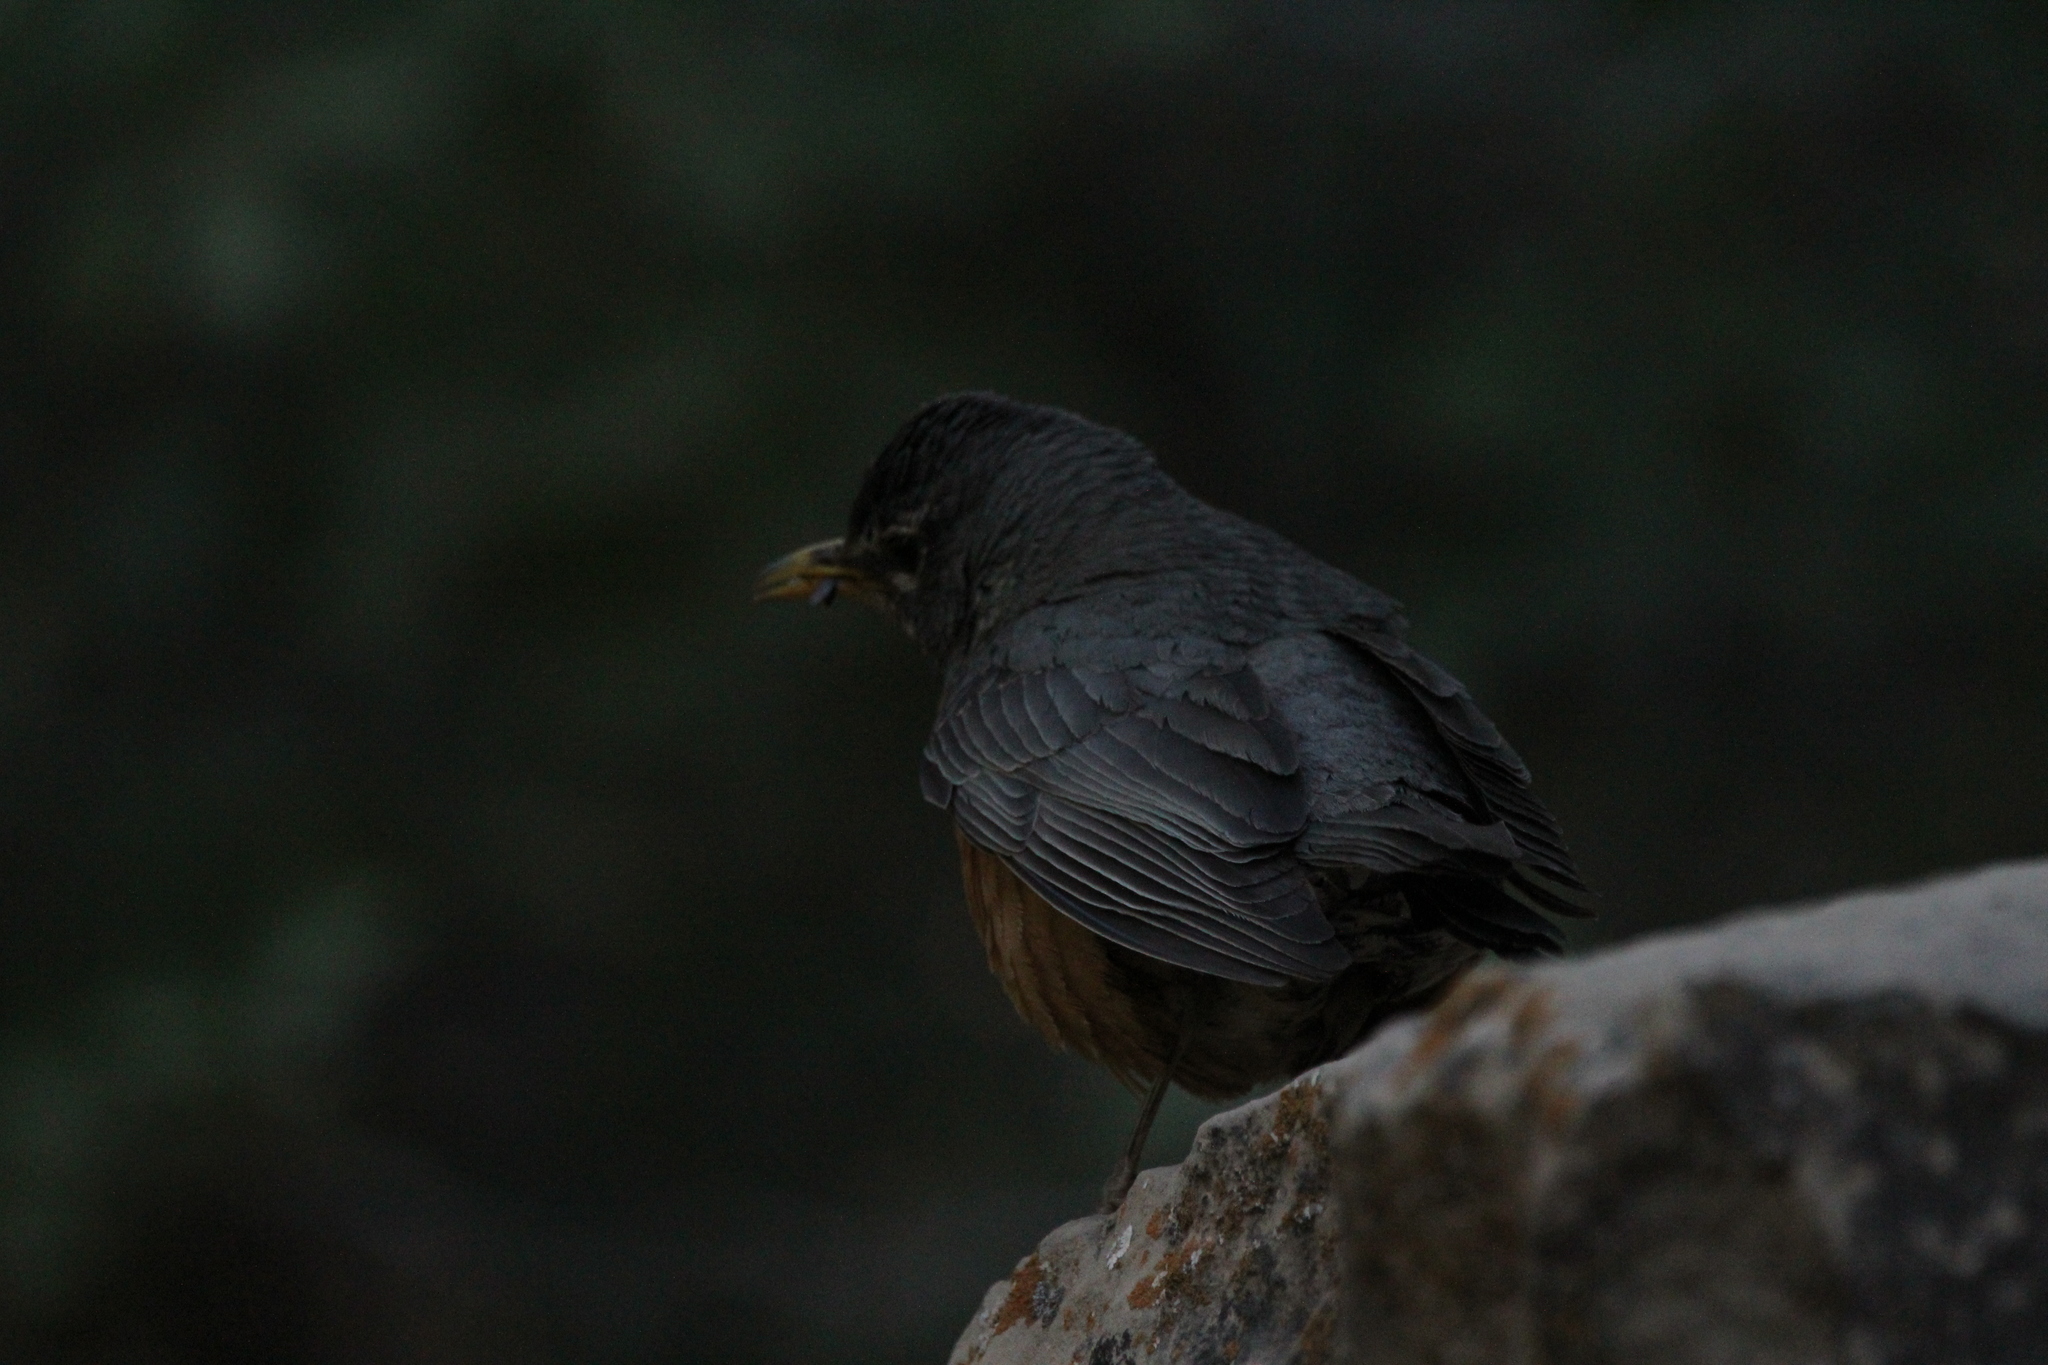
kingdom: Animalia
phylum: Chordata
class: Aves
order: Passeriformes
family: Turdidae
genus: Turdus
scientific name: Turdus migratorius
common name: American robin
